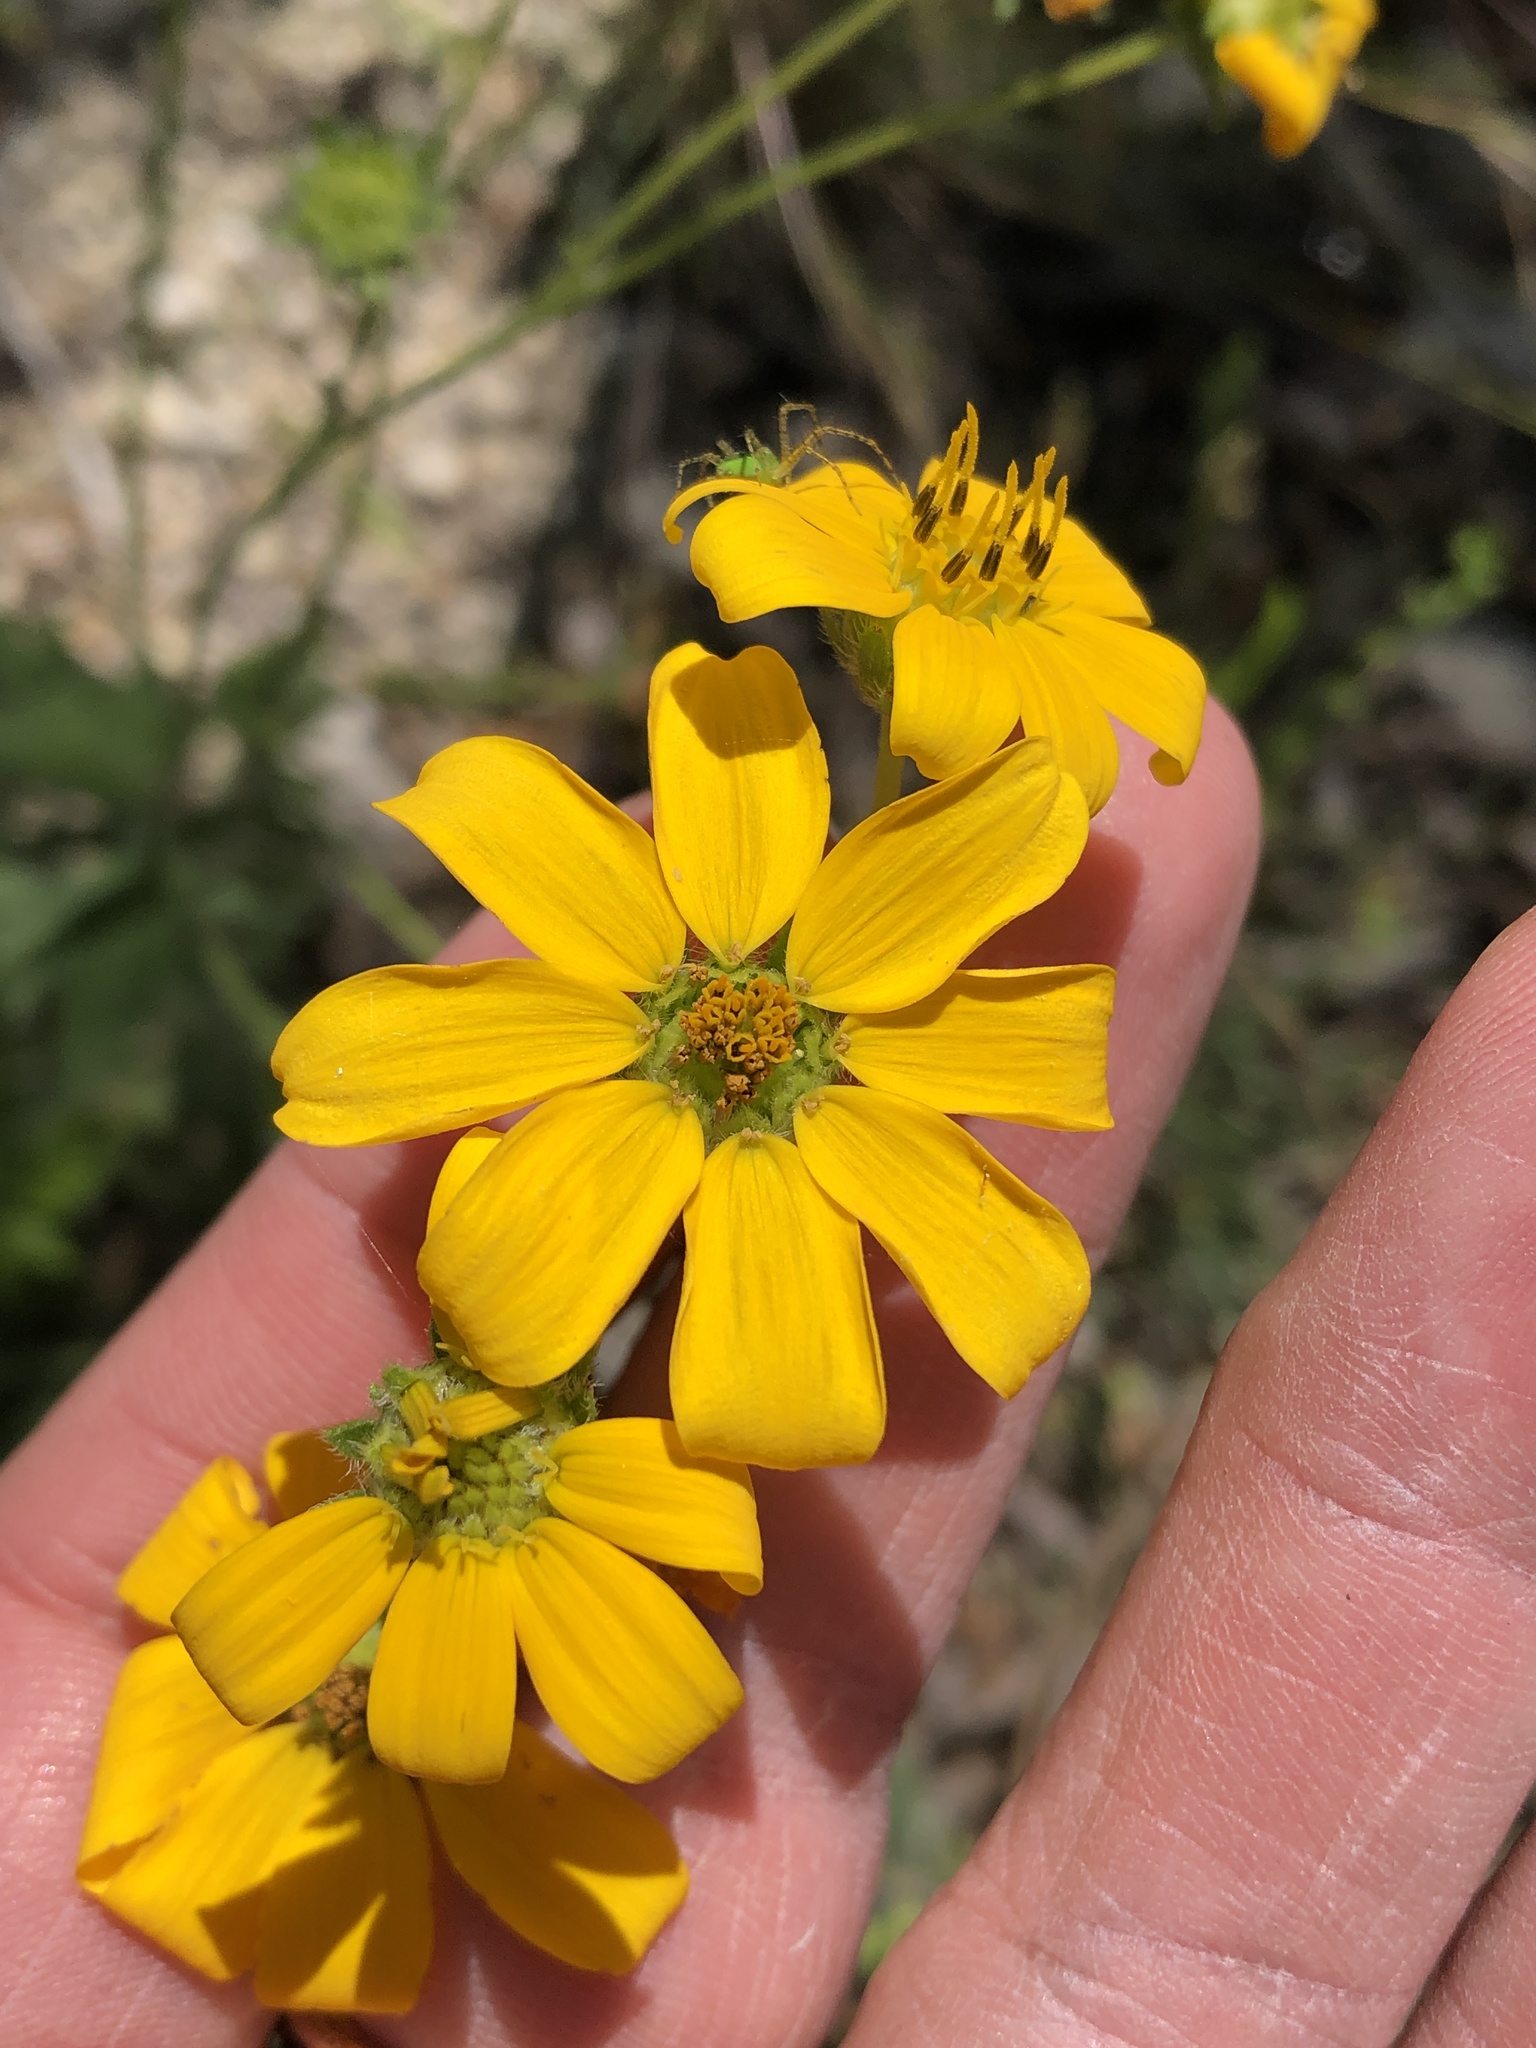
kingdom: Plantae
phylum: Tracheophyta
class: Magnoliopsida
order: Asterales
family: Asteraceae
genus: Engelmannia
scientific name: Engelmannia peristenia
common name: Engelmann's daisy
